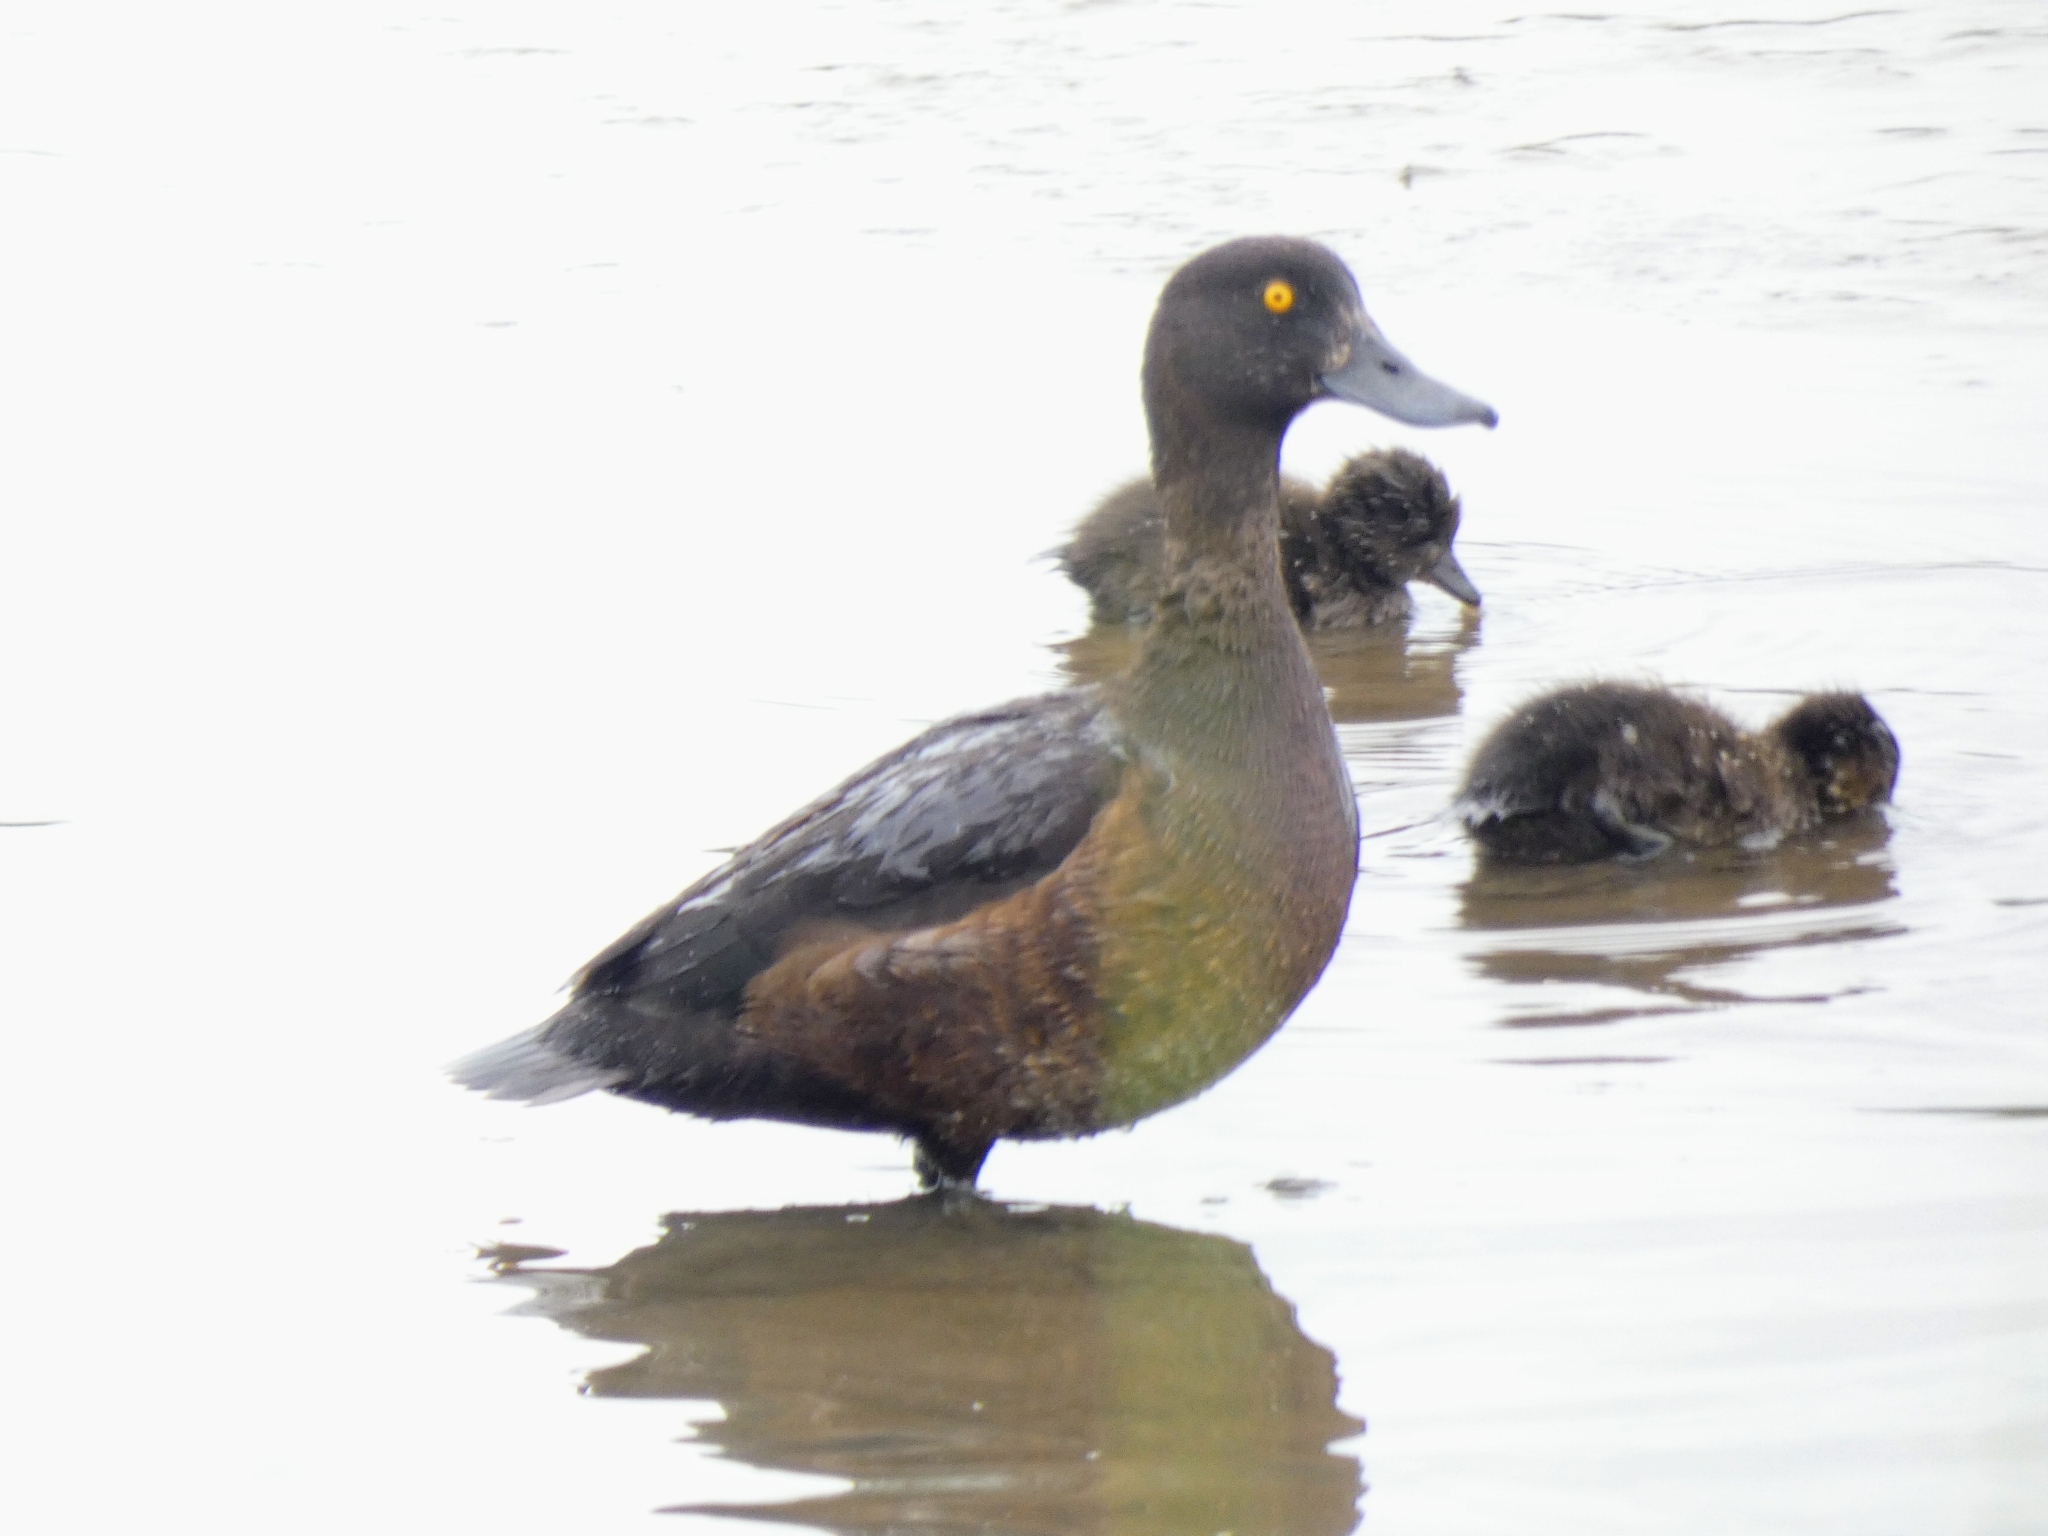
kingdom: Animalia
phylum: Chordata
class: Aves
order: Anseriformes
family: Anatidae
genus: Aythya
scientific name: Aythya fuligula
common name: Tufted duck
